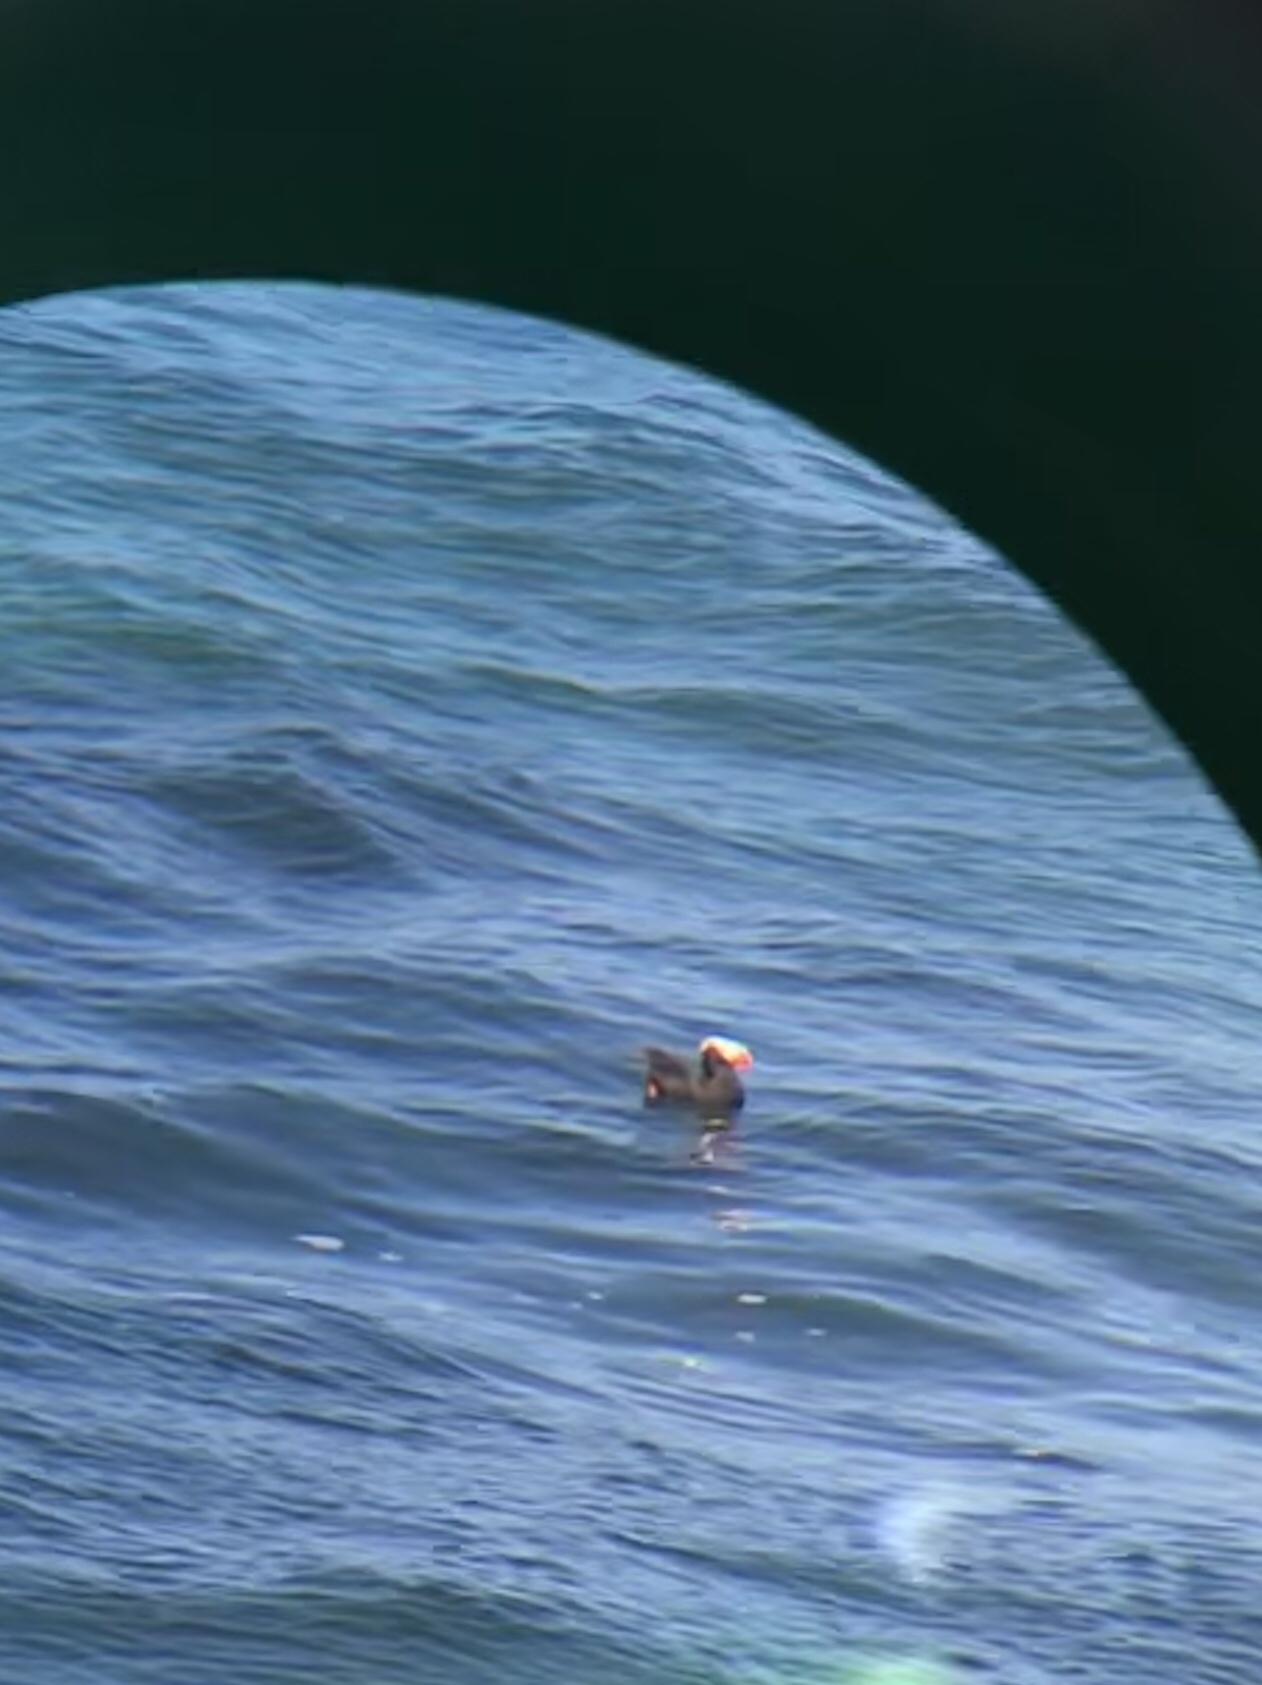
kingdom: Animalia
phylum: Chordata
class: Aves
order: Charadriiformes
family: Alcidae
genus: Fratercula
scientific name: Fratercula cirrhata
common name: Tufted puffin
